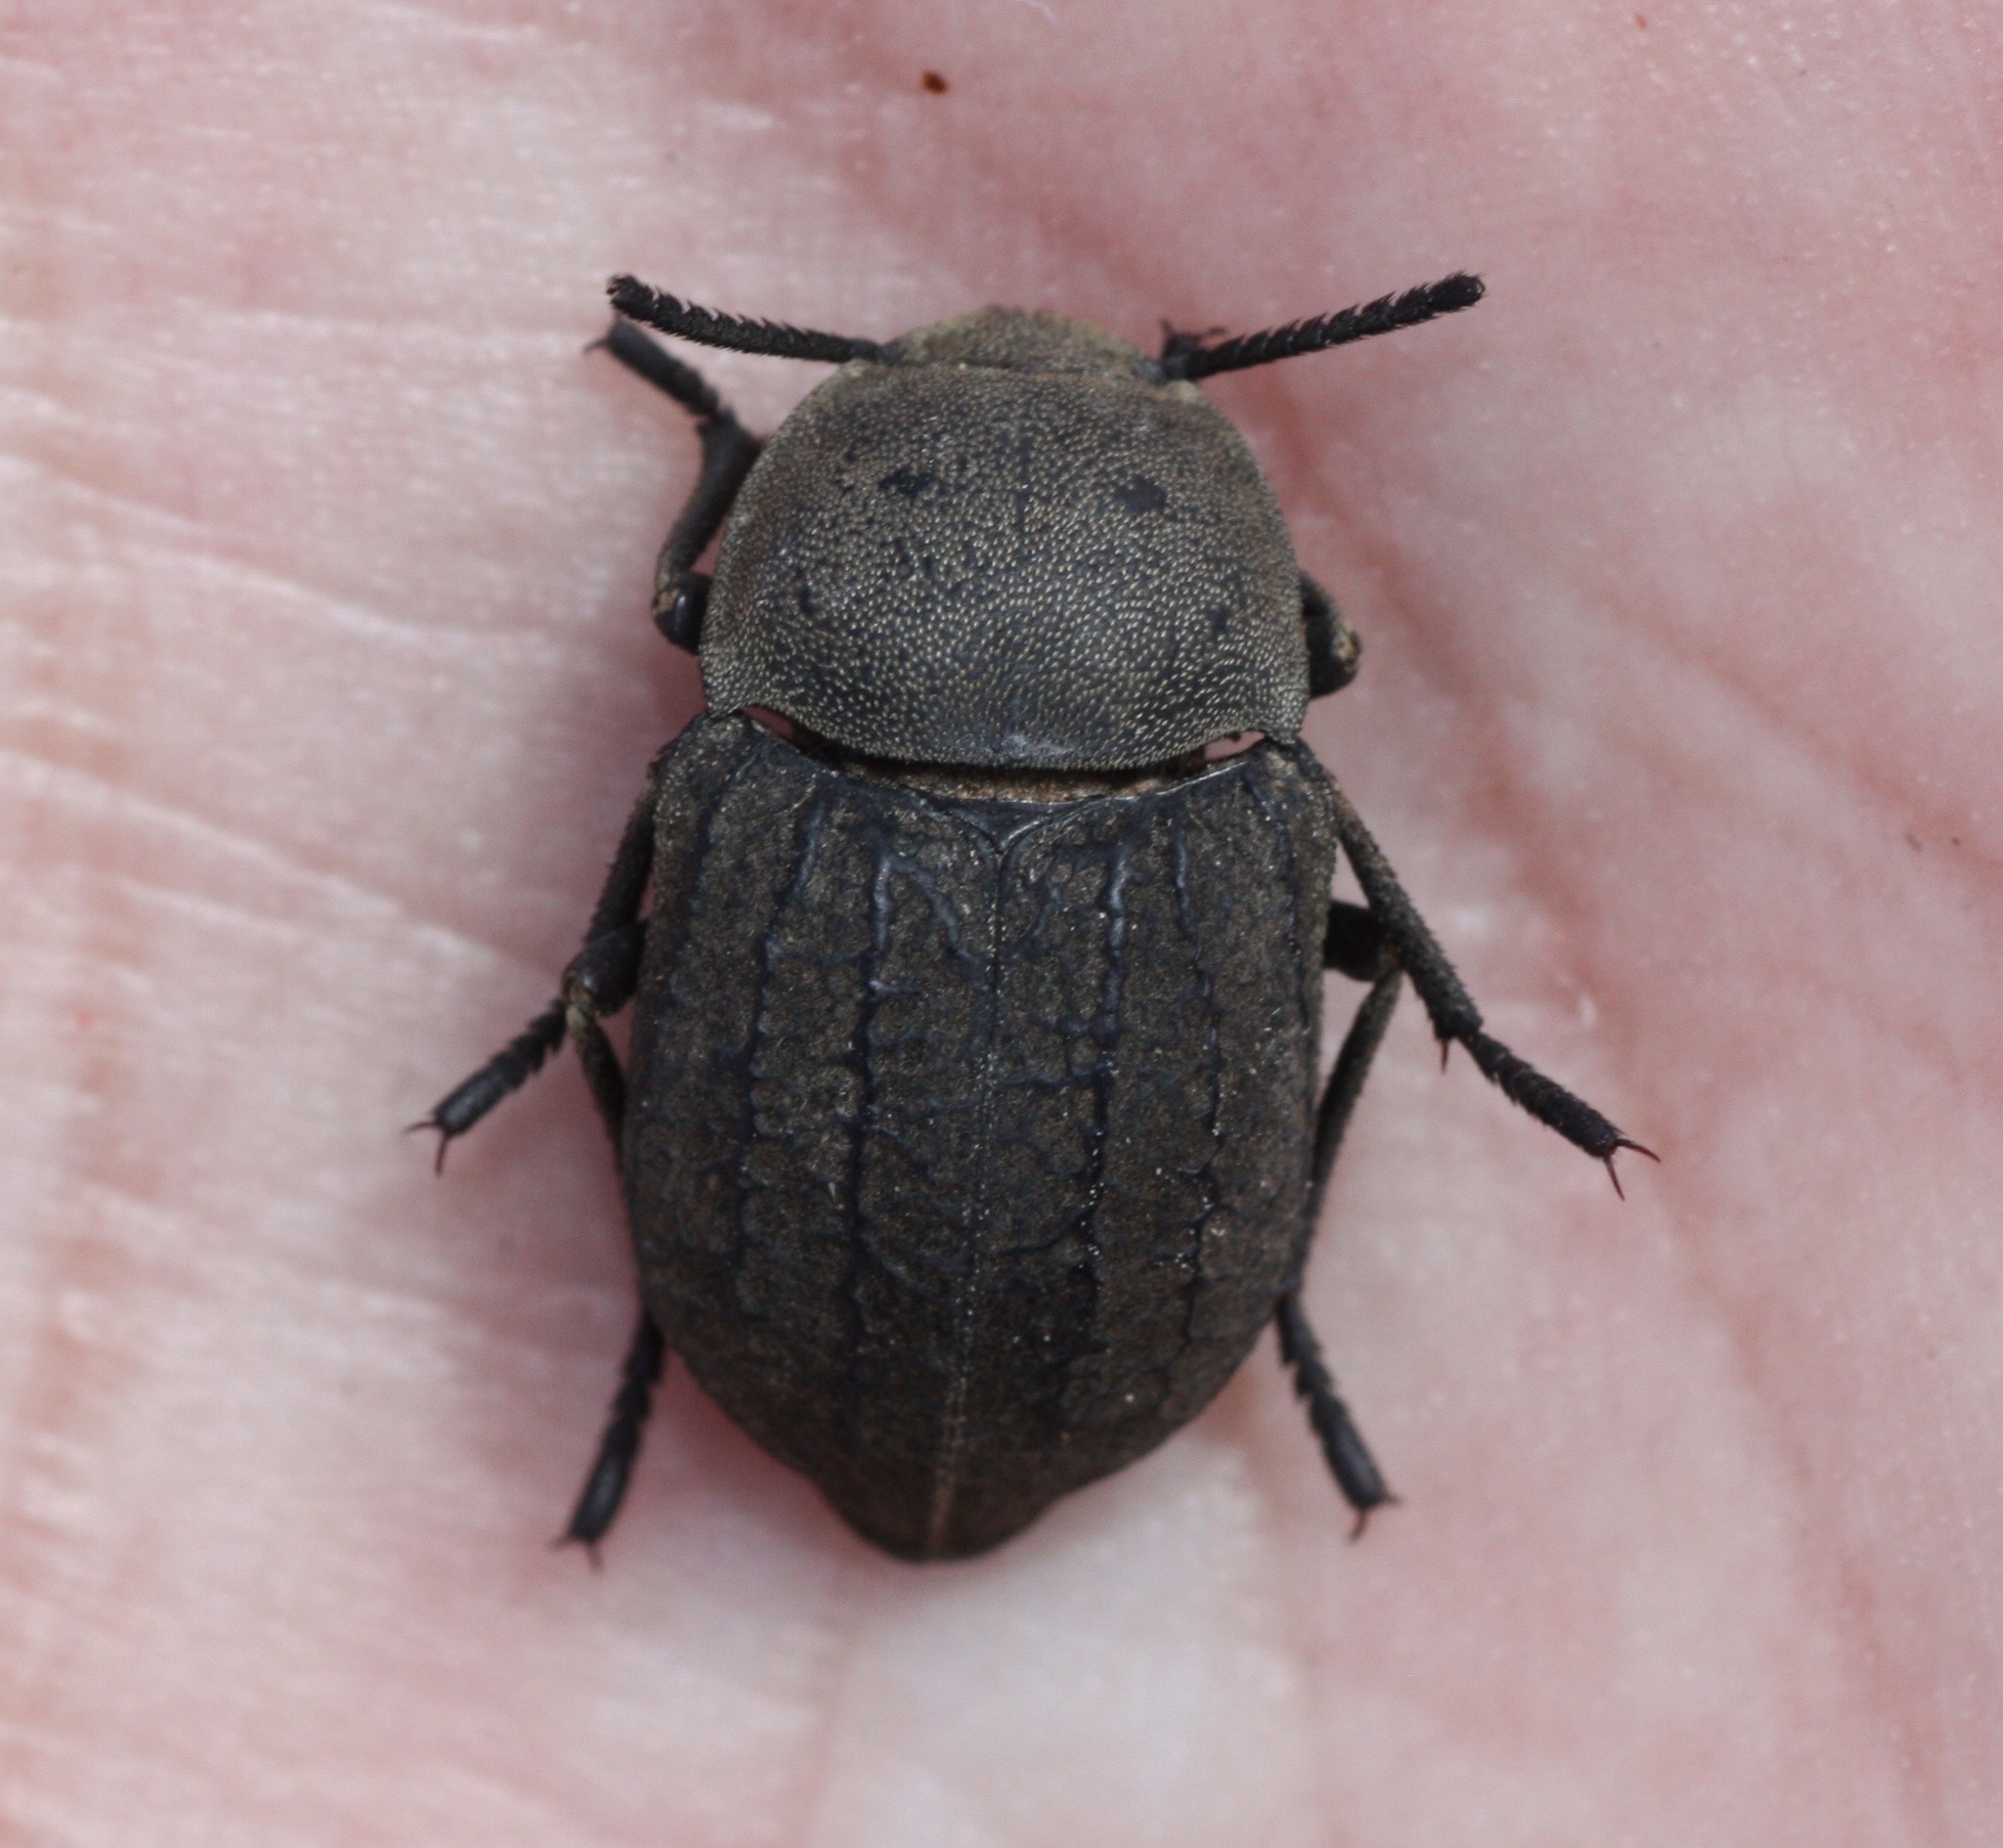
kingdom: Animalia
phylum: Arthropoda
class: Insecta
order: Coleoptera
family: Tenebrionidae
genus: Microschatia
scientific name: Microschatia morata
